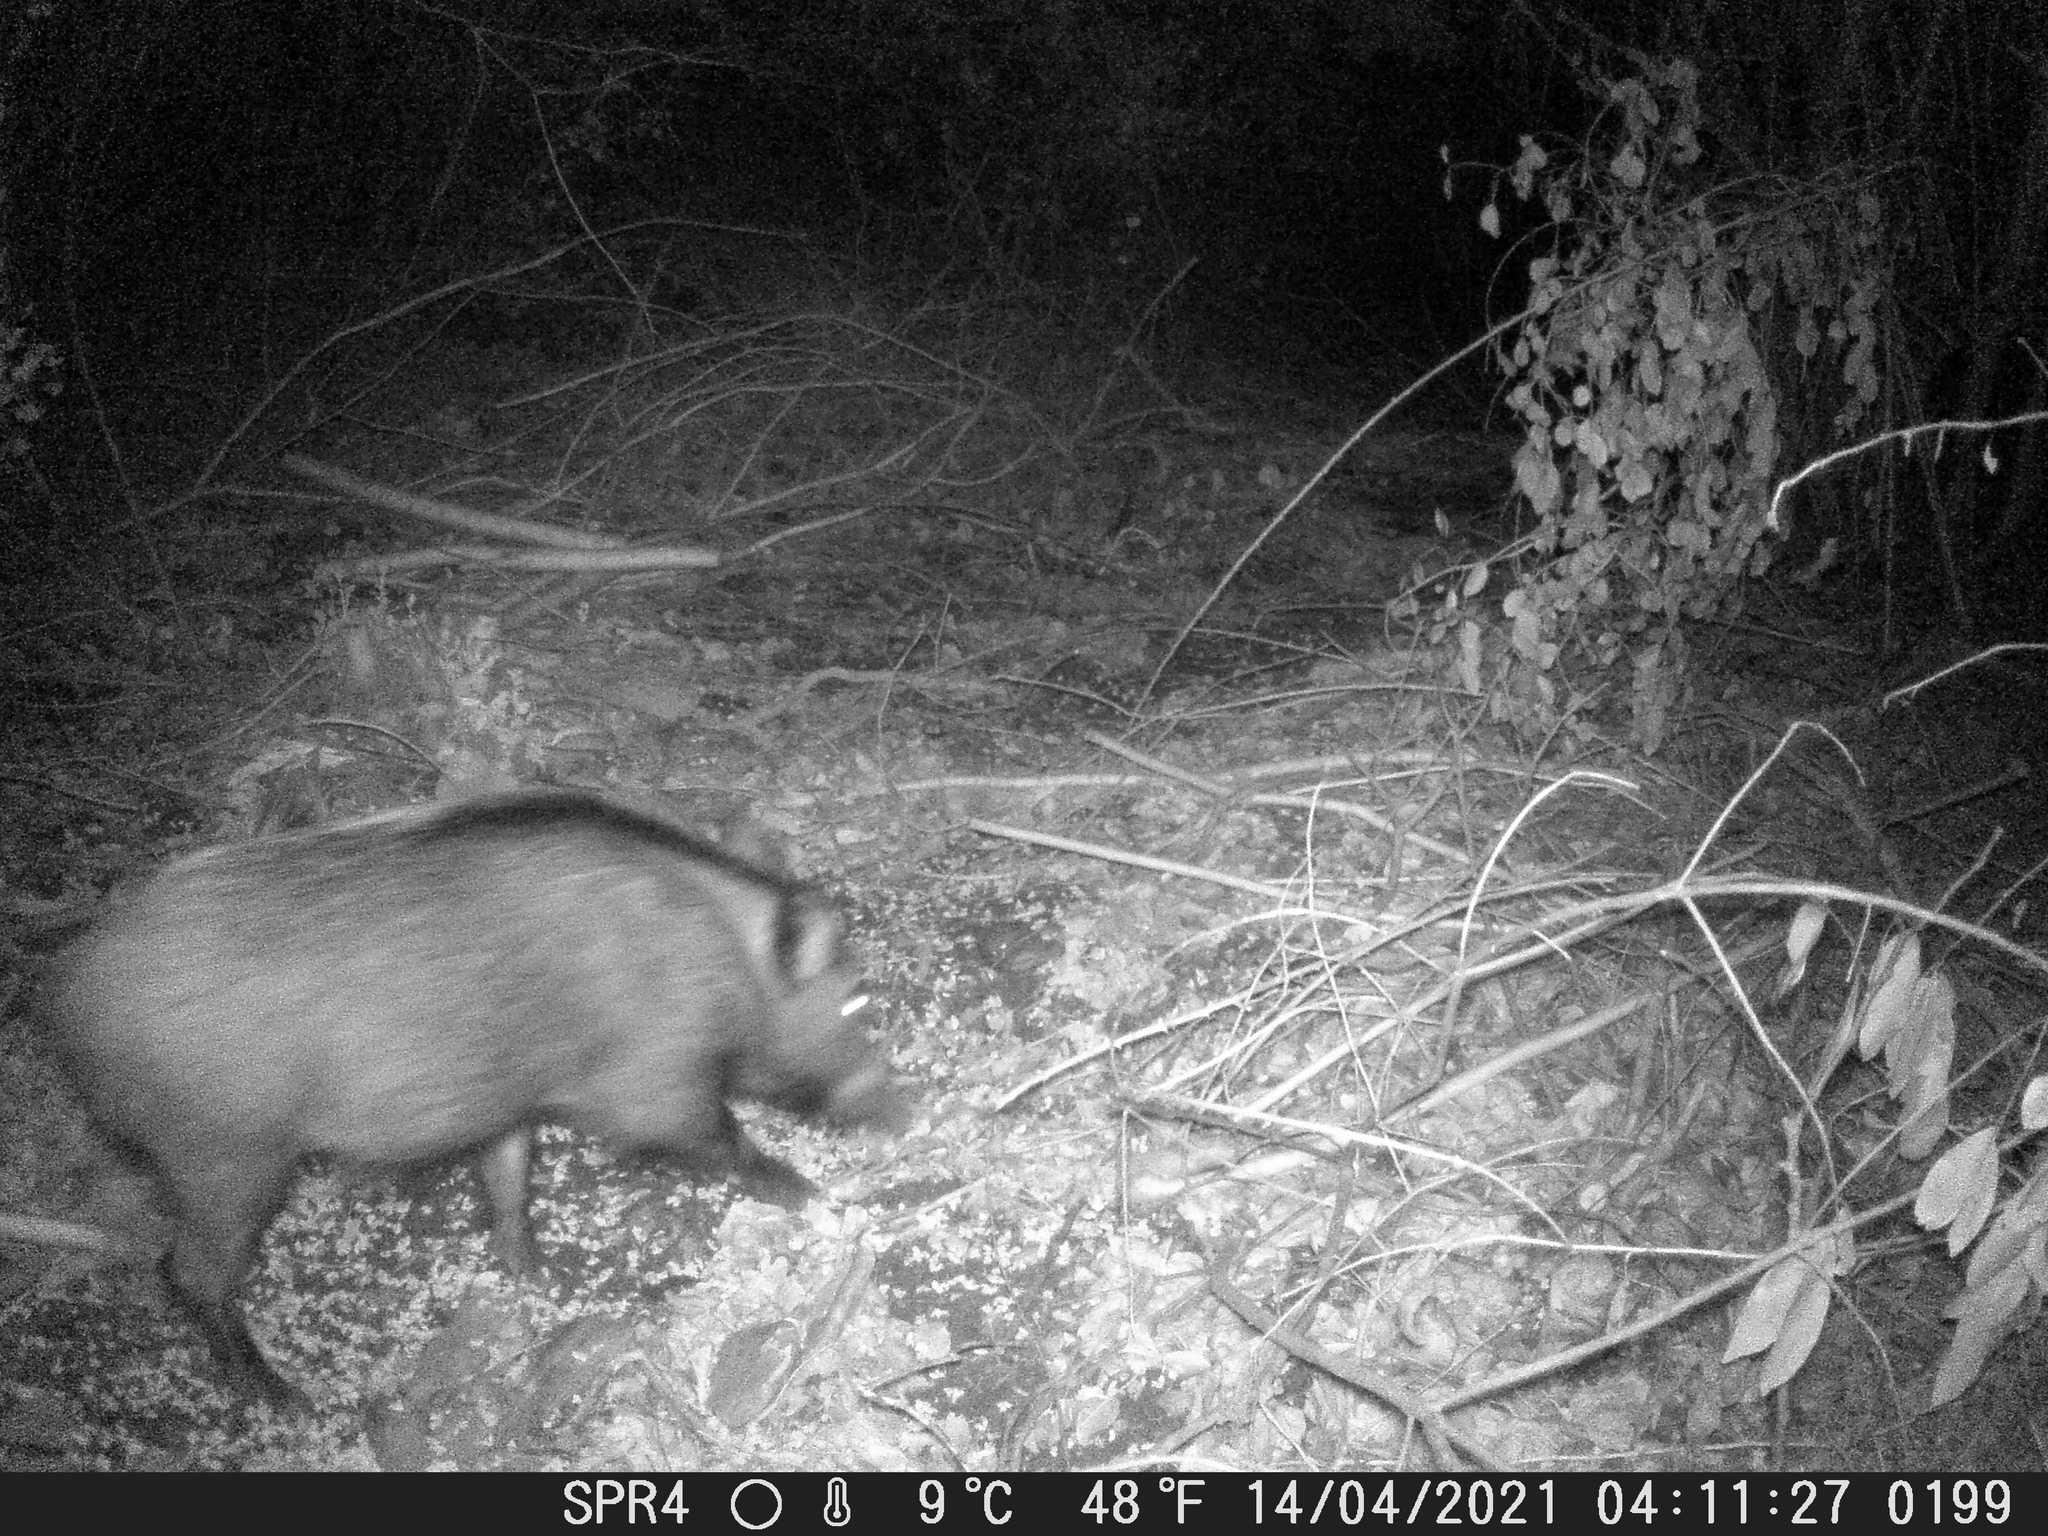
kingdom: Animalia
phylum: Chordata
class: Mammalia
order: Artiodactyla
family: Suidae
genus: Sus
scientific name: Sus scrofa
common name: Wild boar
